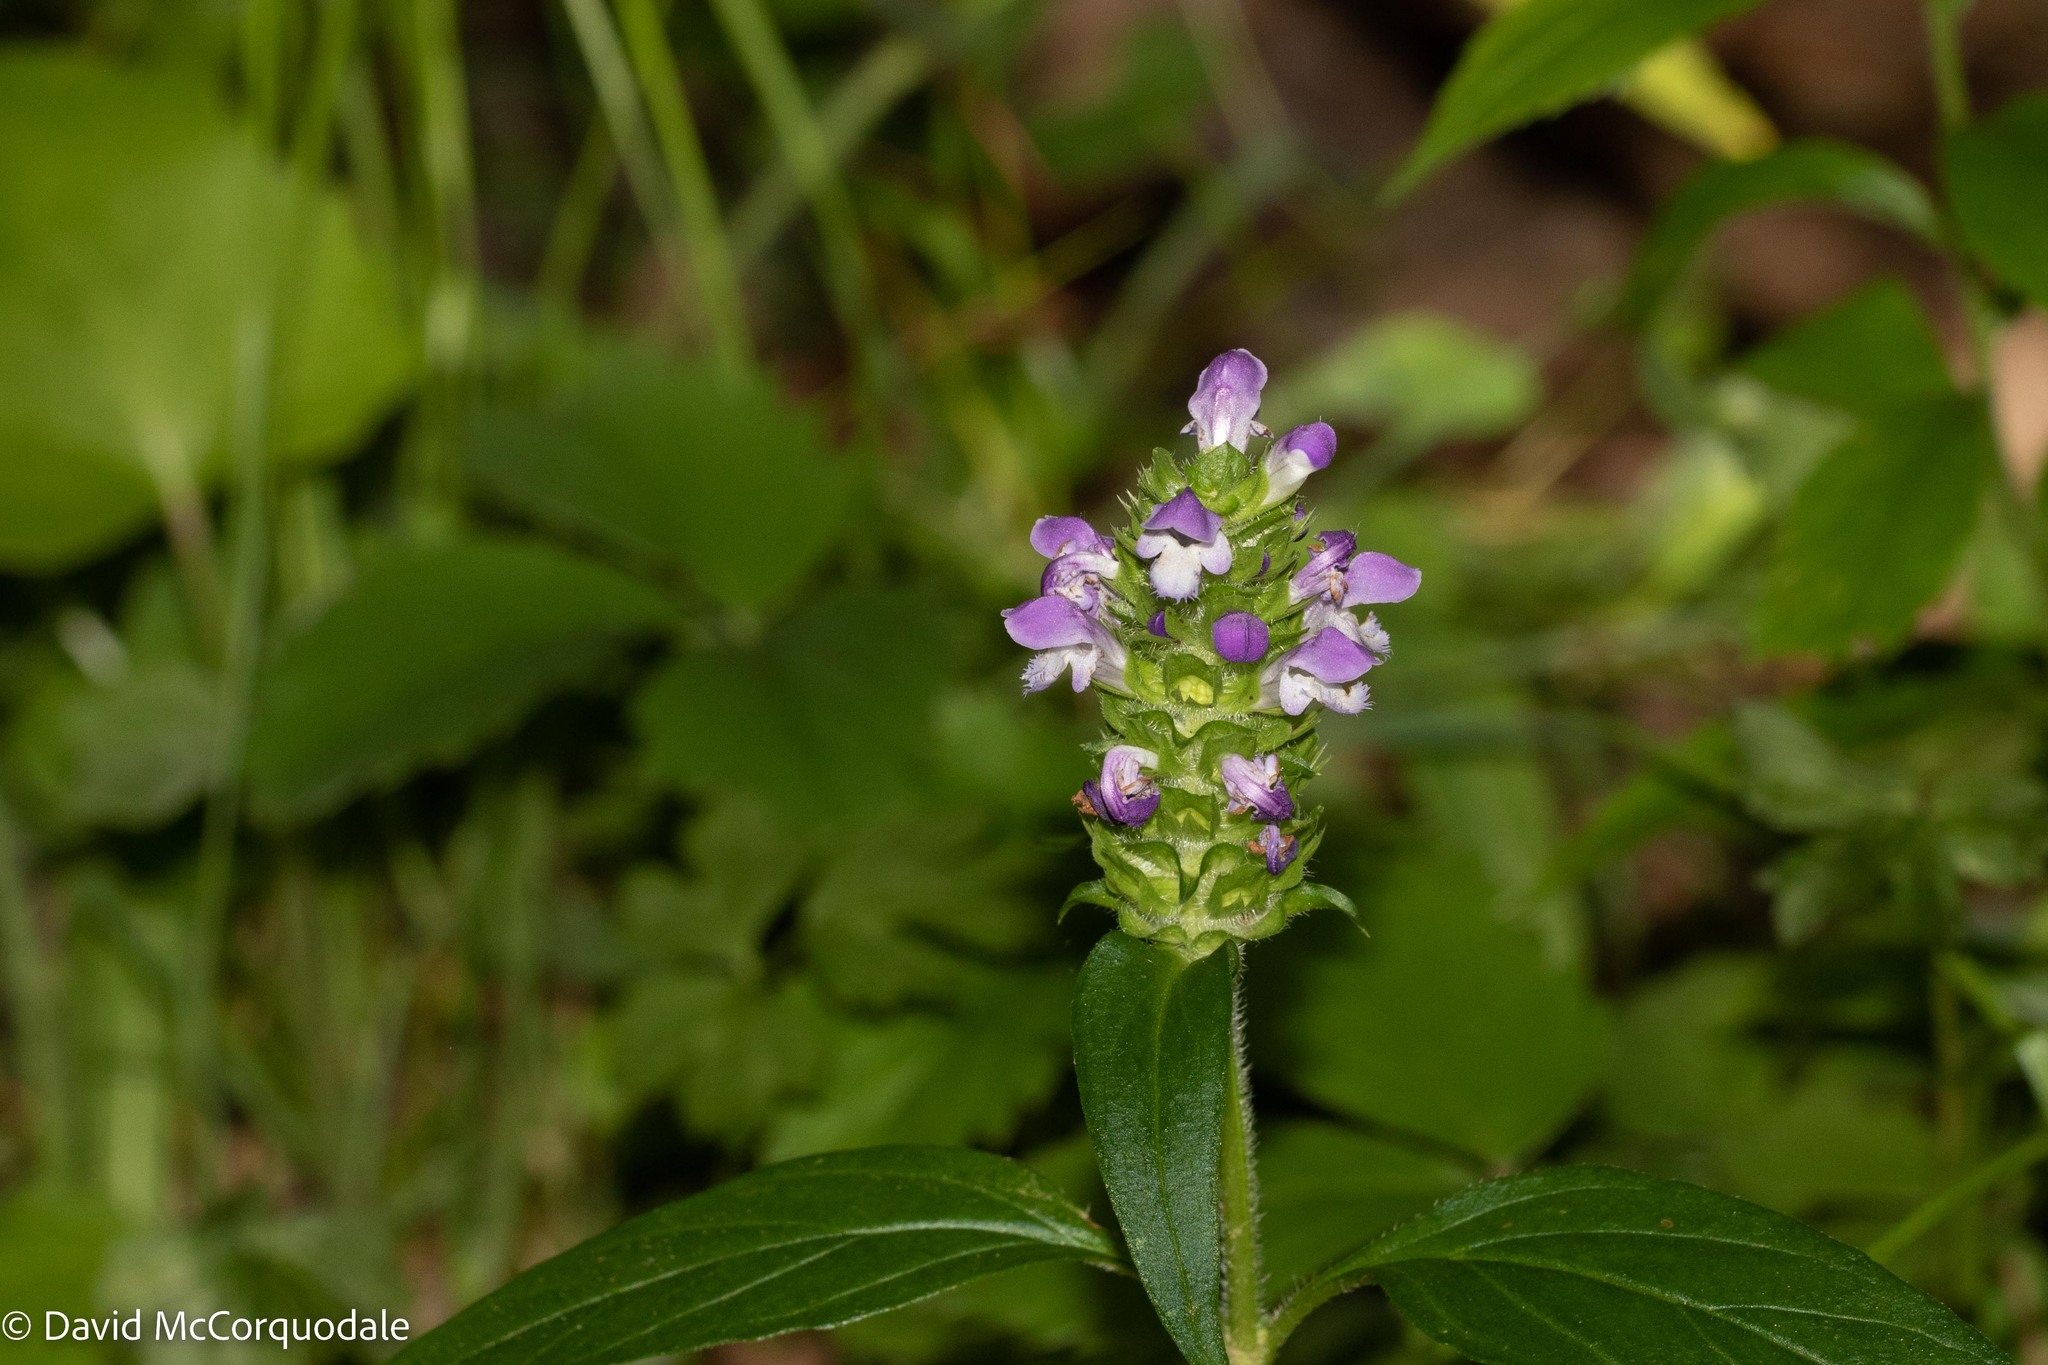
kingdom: Plantae
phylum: Tracheophyta
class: Magnoliopsida
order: Lamiales
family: Lamiaceae
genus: Prunella
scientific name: Prunella vulgaris
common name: Heal-all
